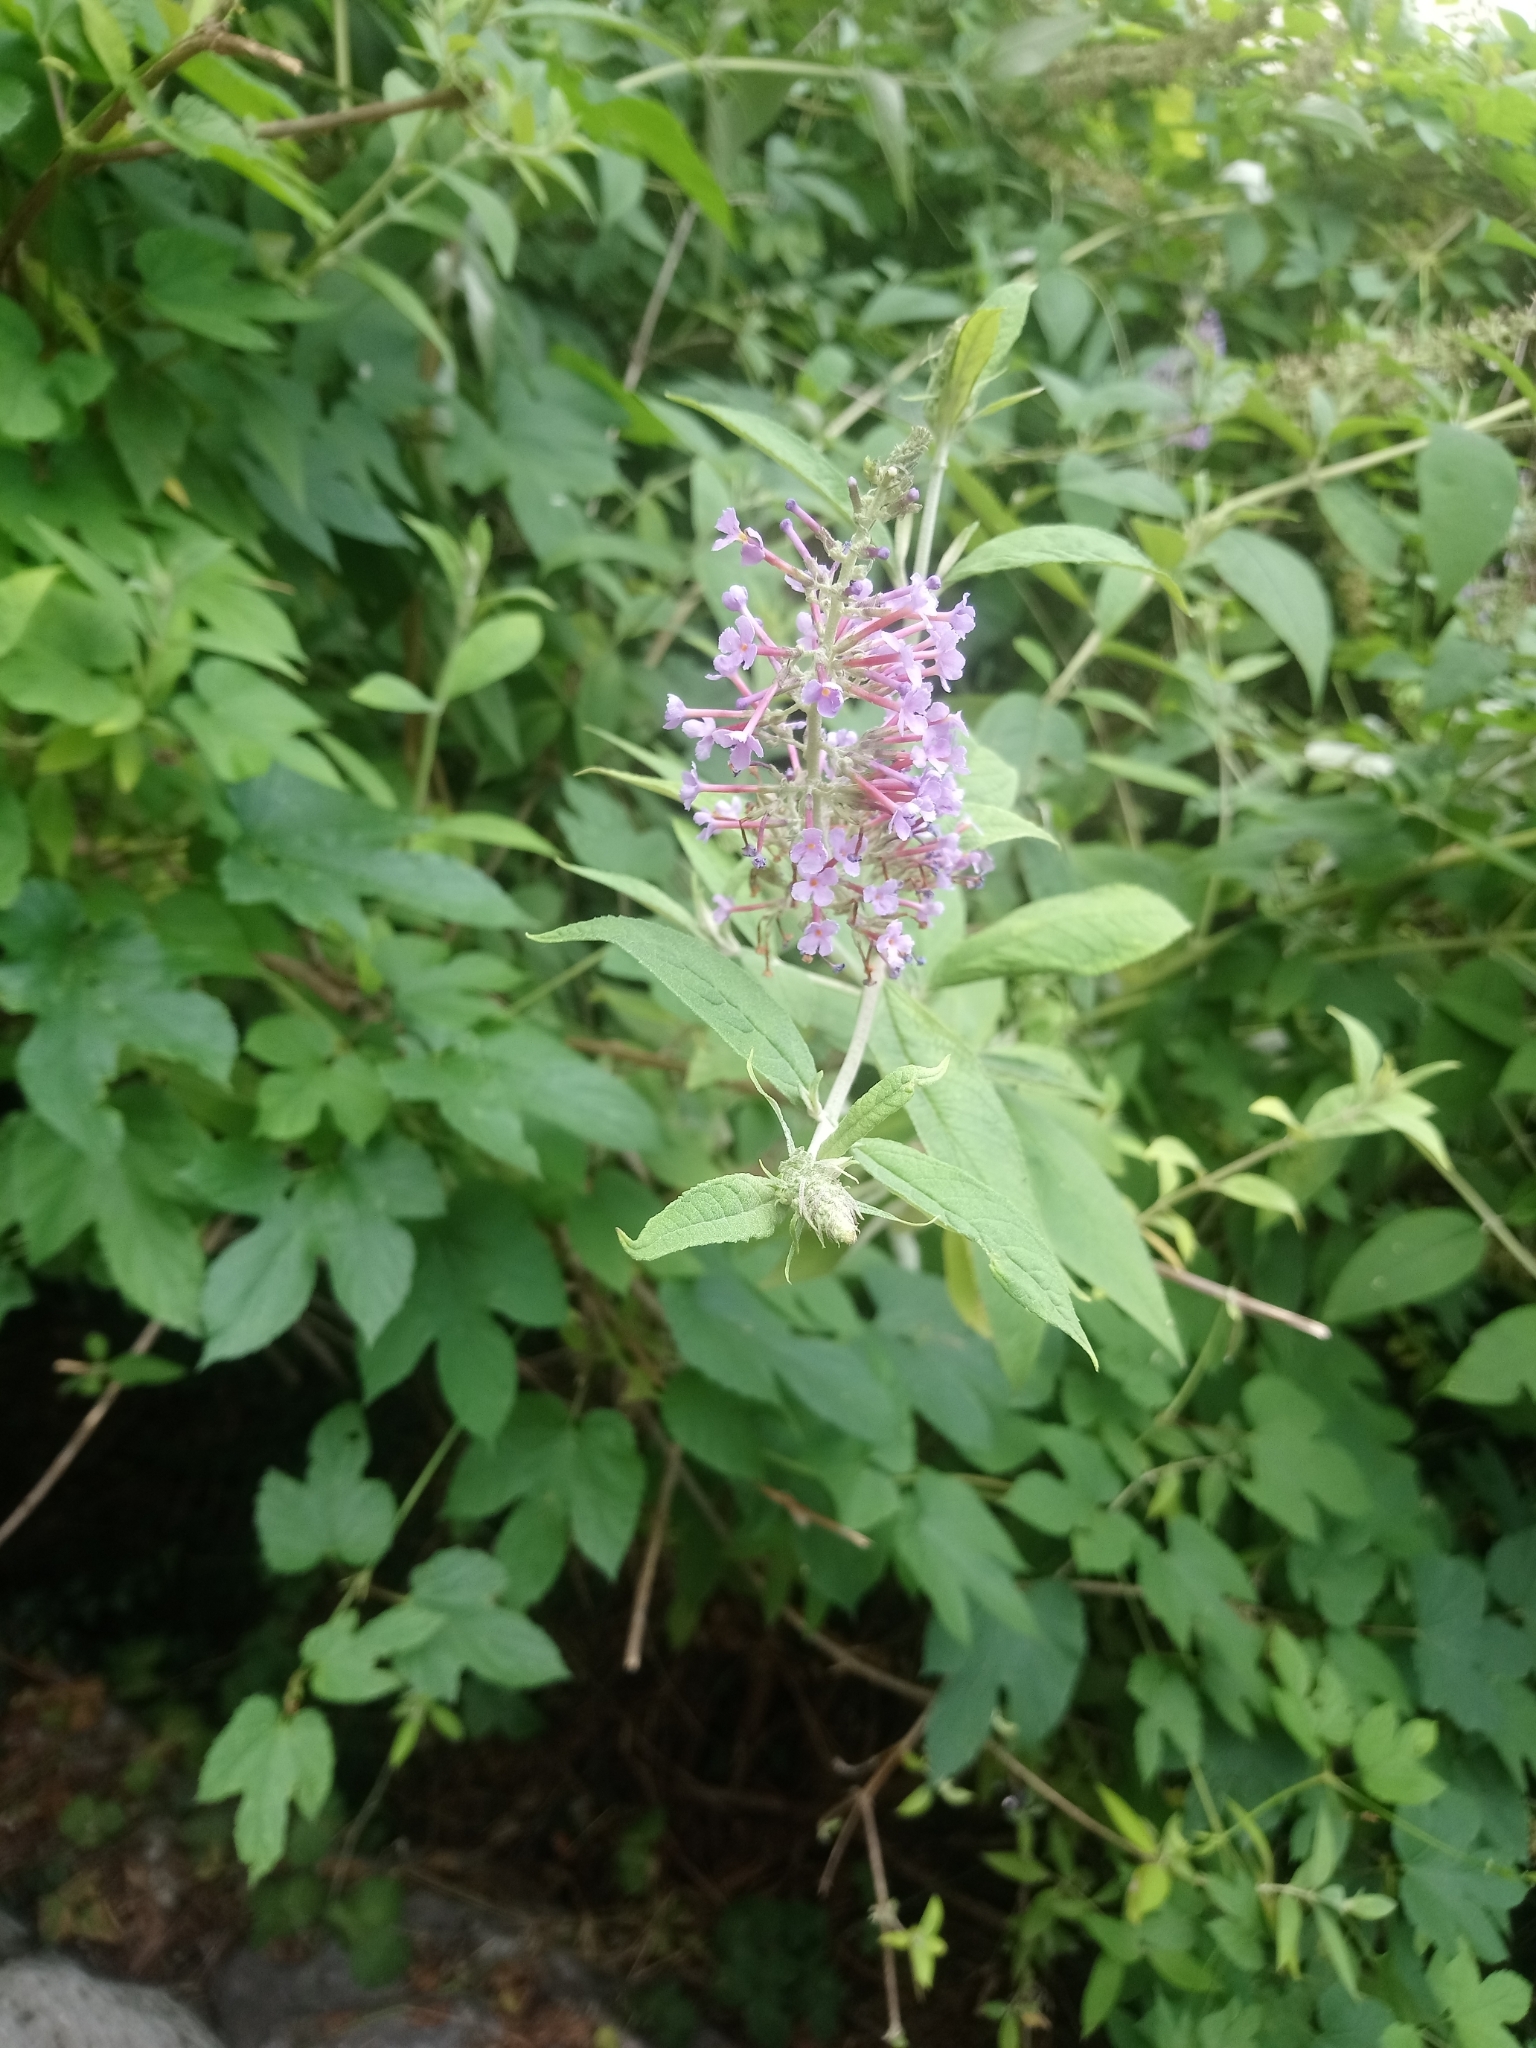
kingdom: Plantae
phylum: Tracheophyta
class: Magnoliopsida
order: Lamiales
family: Scrophulariaceae
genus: Buddleja
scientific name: Buddleja davidii
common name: Butterfly-bush
